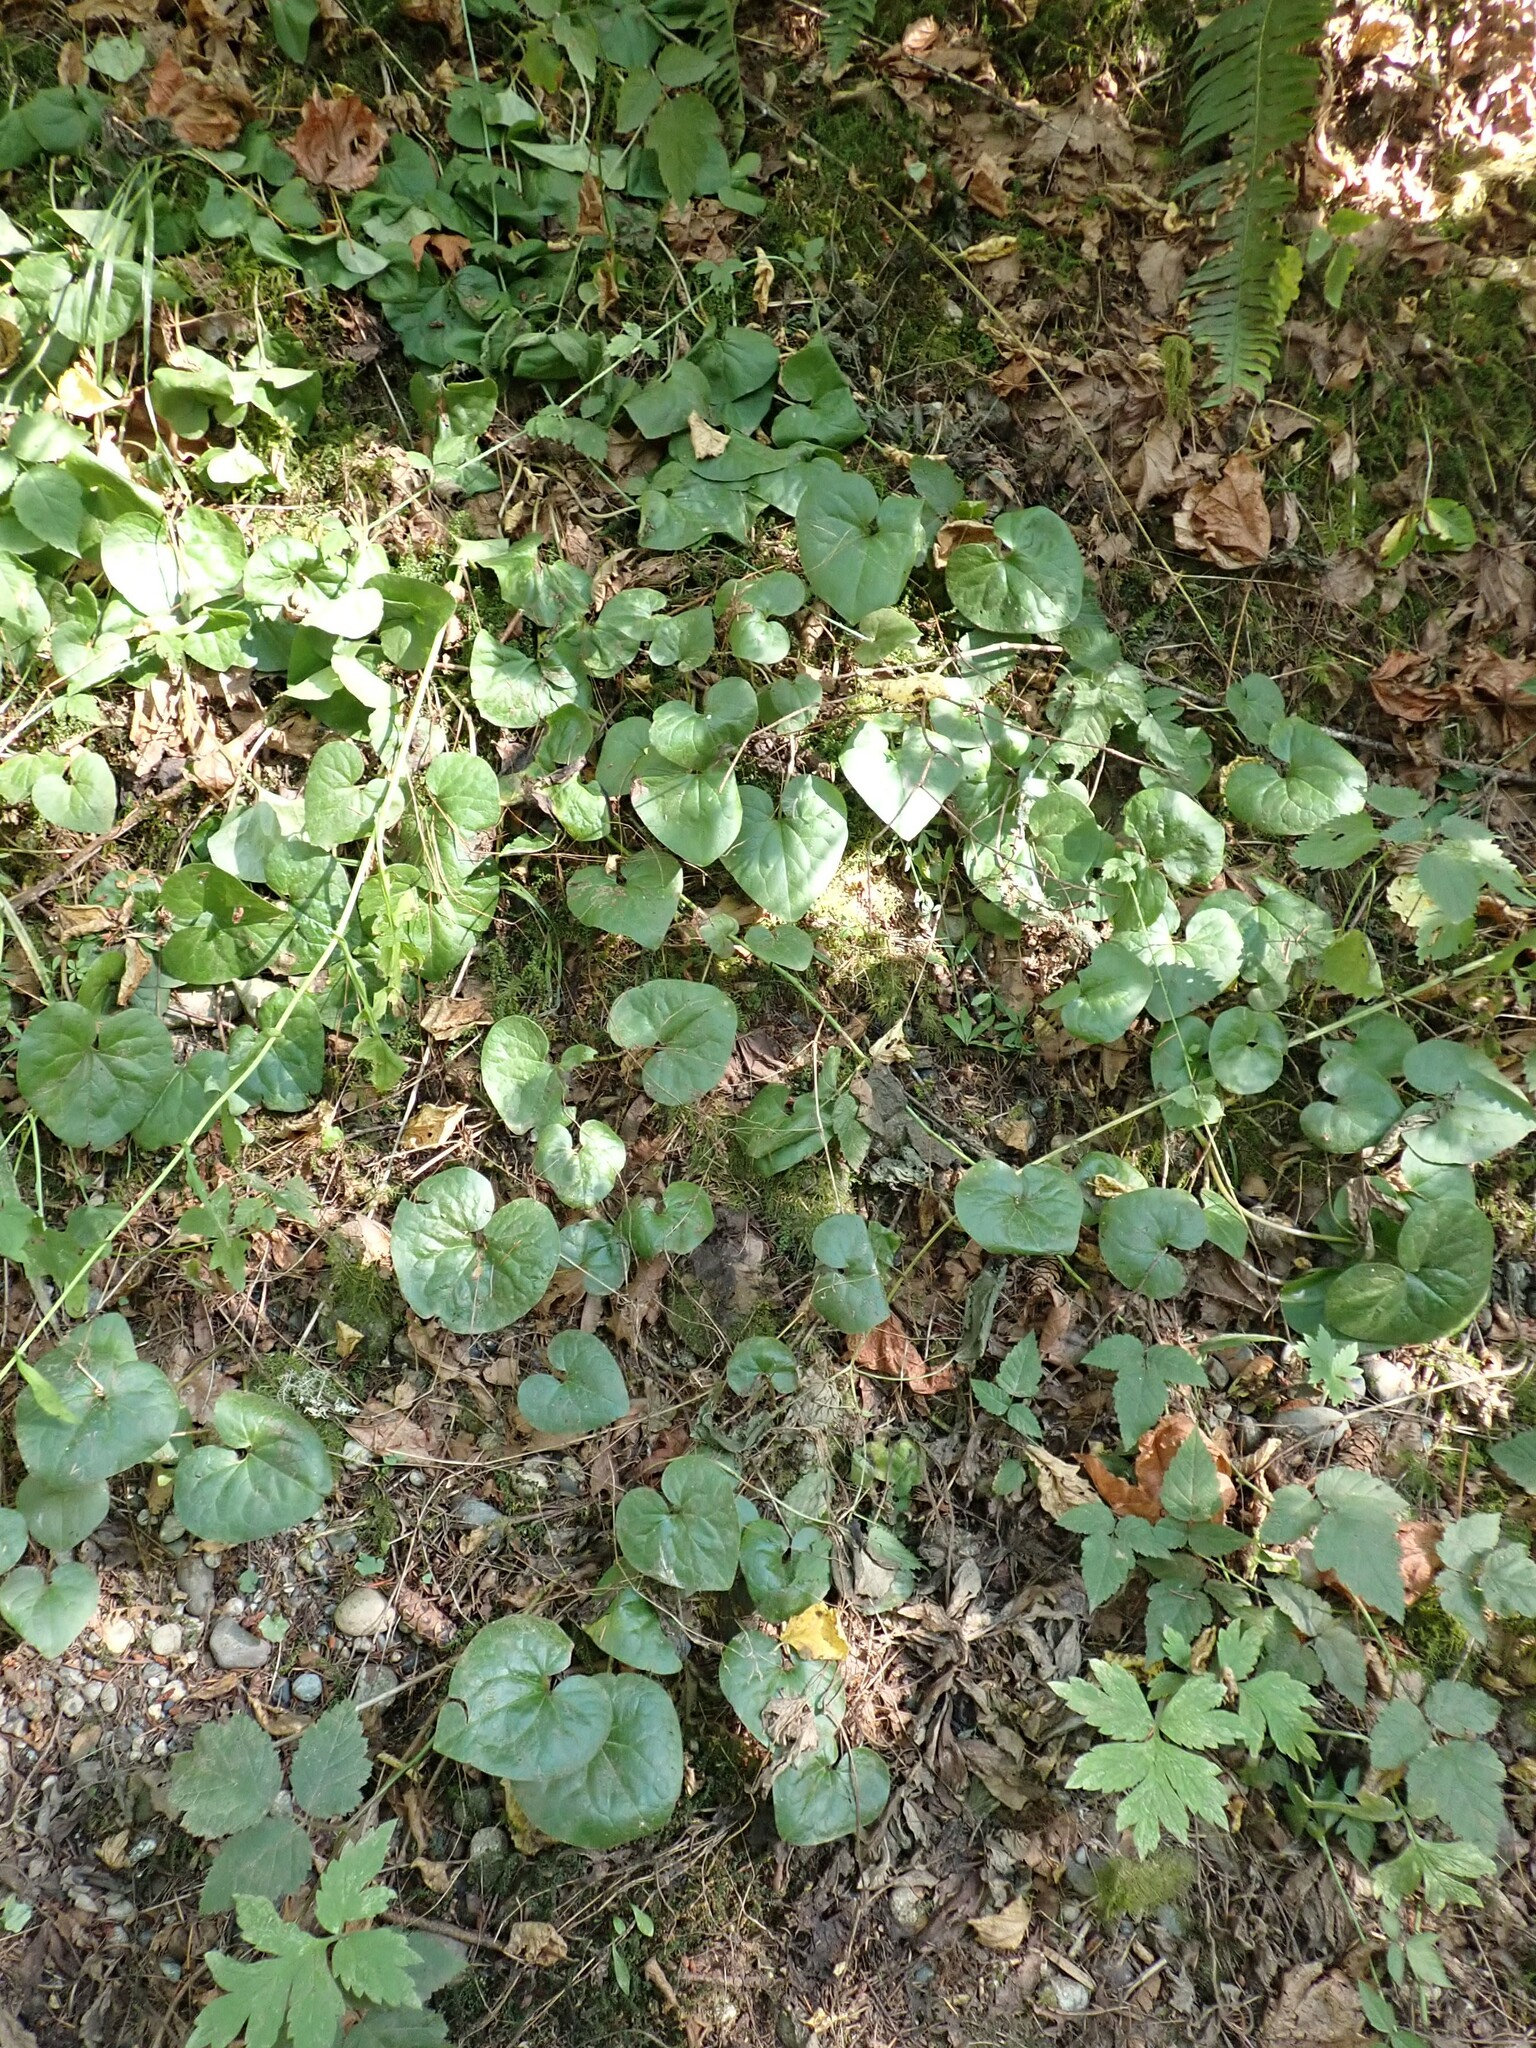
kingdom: Plantae
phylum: Tracheophyta
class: Magnoliopsida
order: Piperales
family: Aristolochiaceae
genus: Asarum
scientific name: Asarum caudatum
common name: Wild ginger
